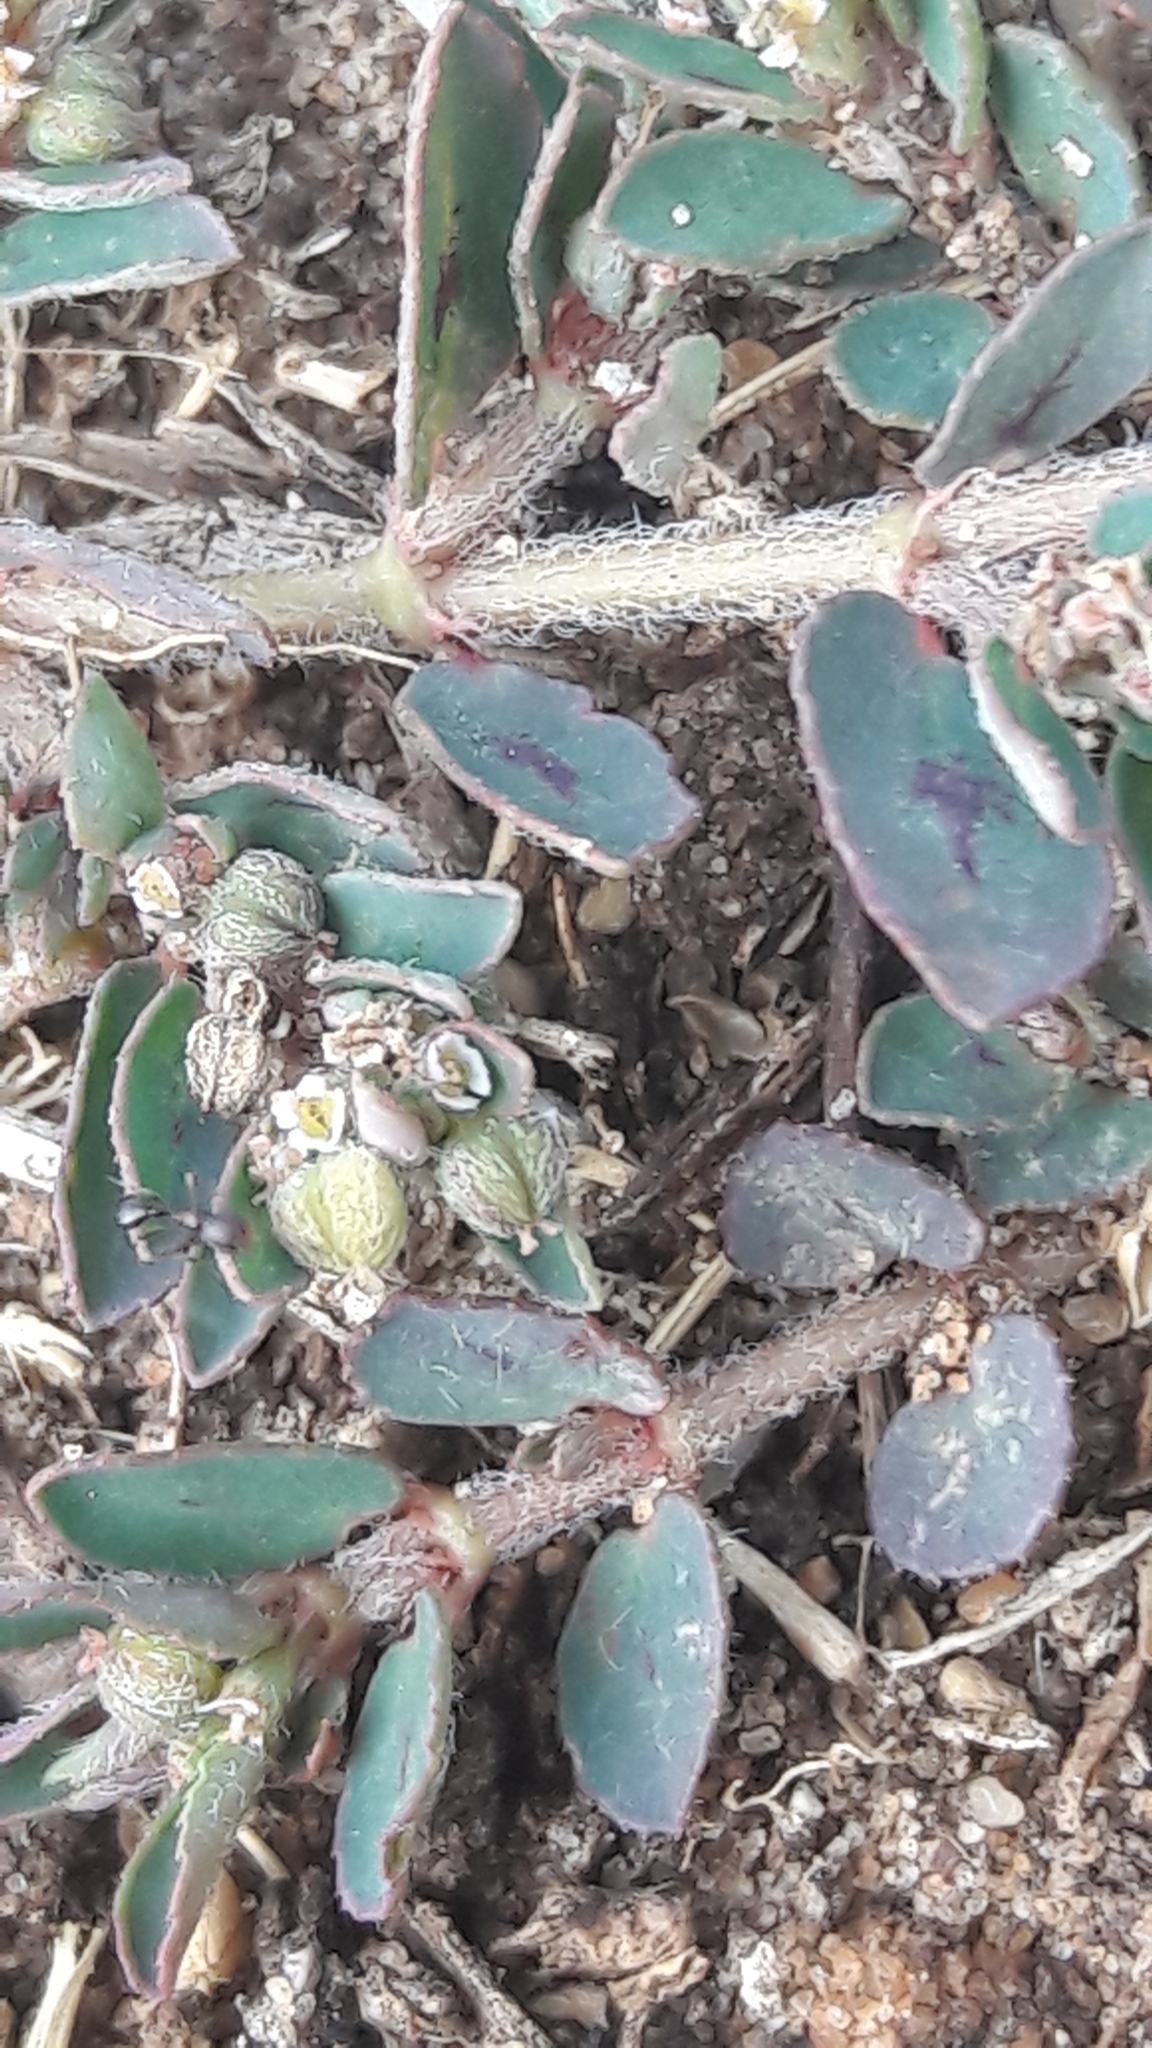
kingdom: Plantae
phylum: Tracheophyta
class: Magnoliopsida
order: Malpighiales
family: Euphorbiaceae
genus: Euphorbia
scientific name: Euphorbia maculata
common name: Spotted spurge
